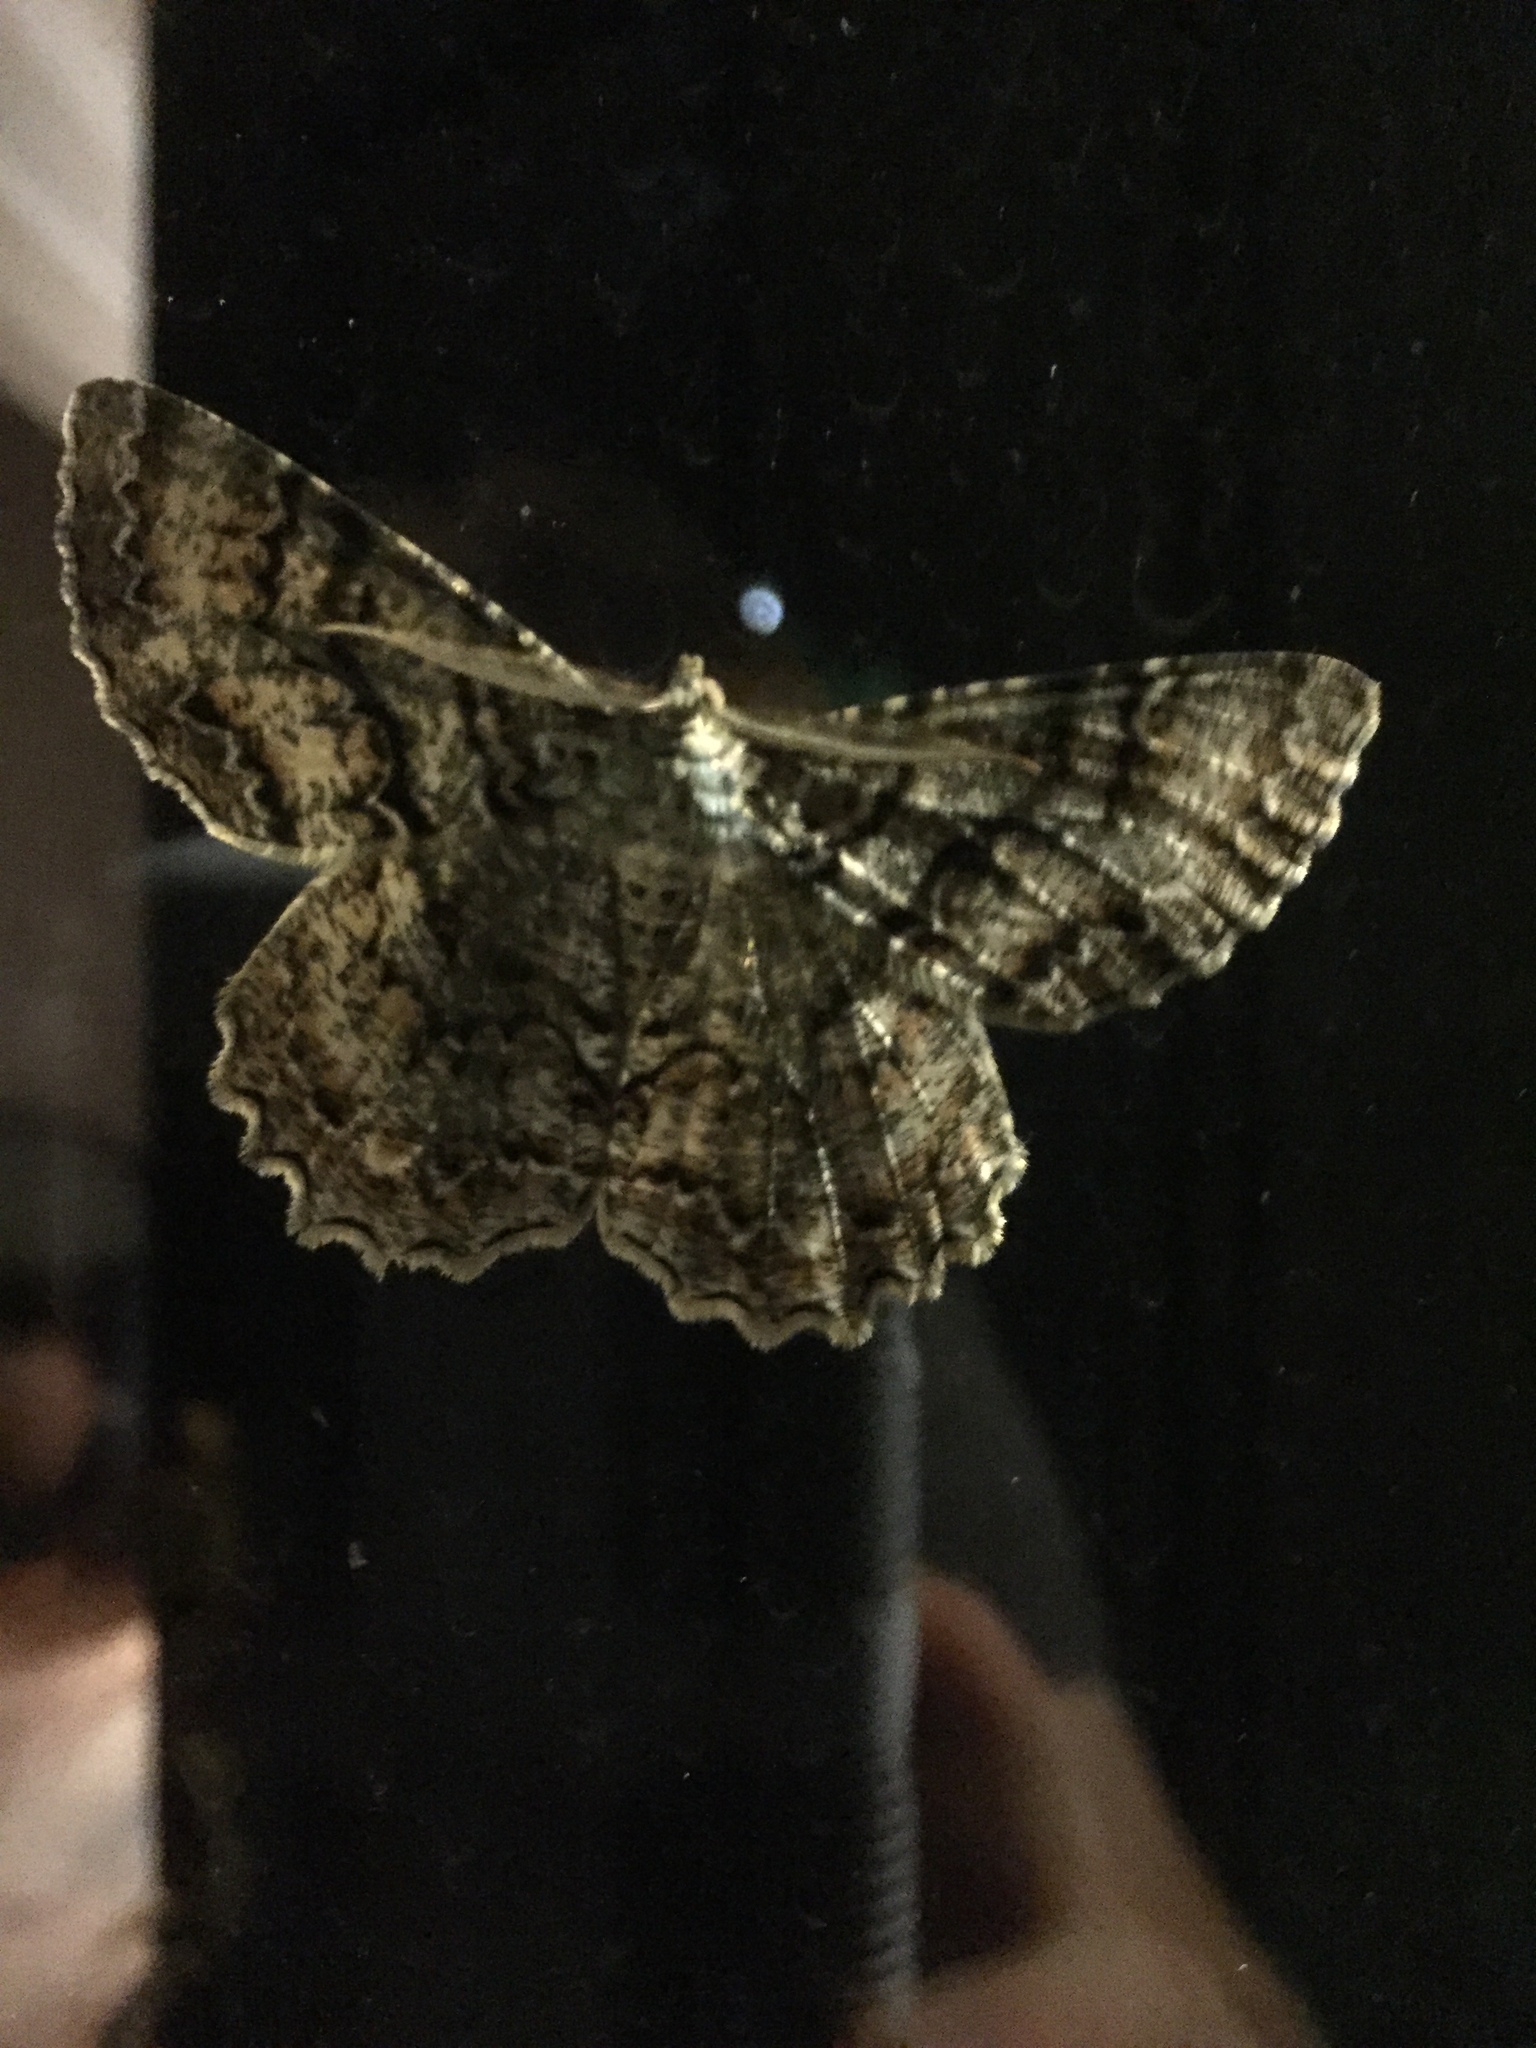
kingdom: Animalia
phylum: Arthropoda
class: Insecta
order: Lepidoptera
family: Geometridae
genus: Epimecis
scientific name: Epimecis hortaria
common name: Tulip-tree beauty
